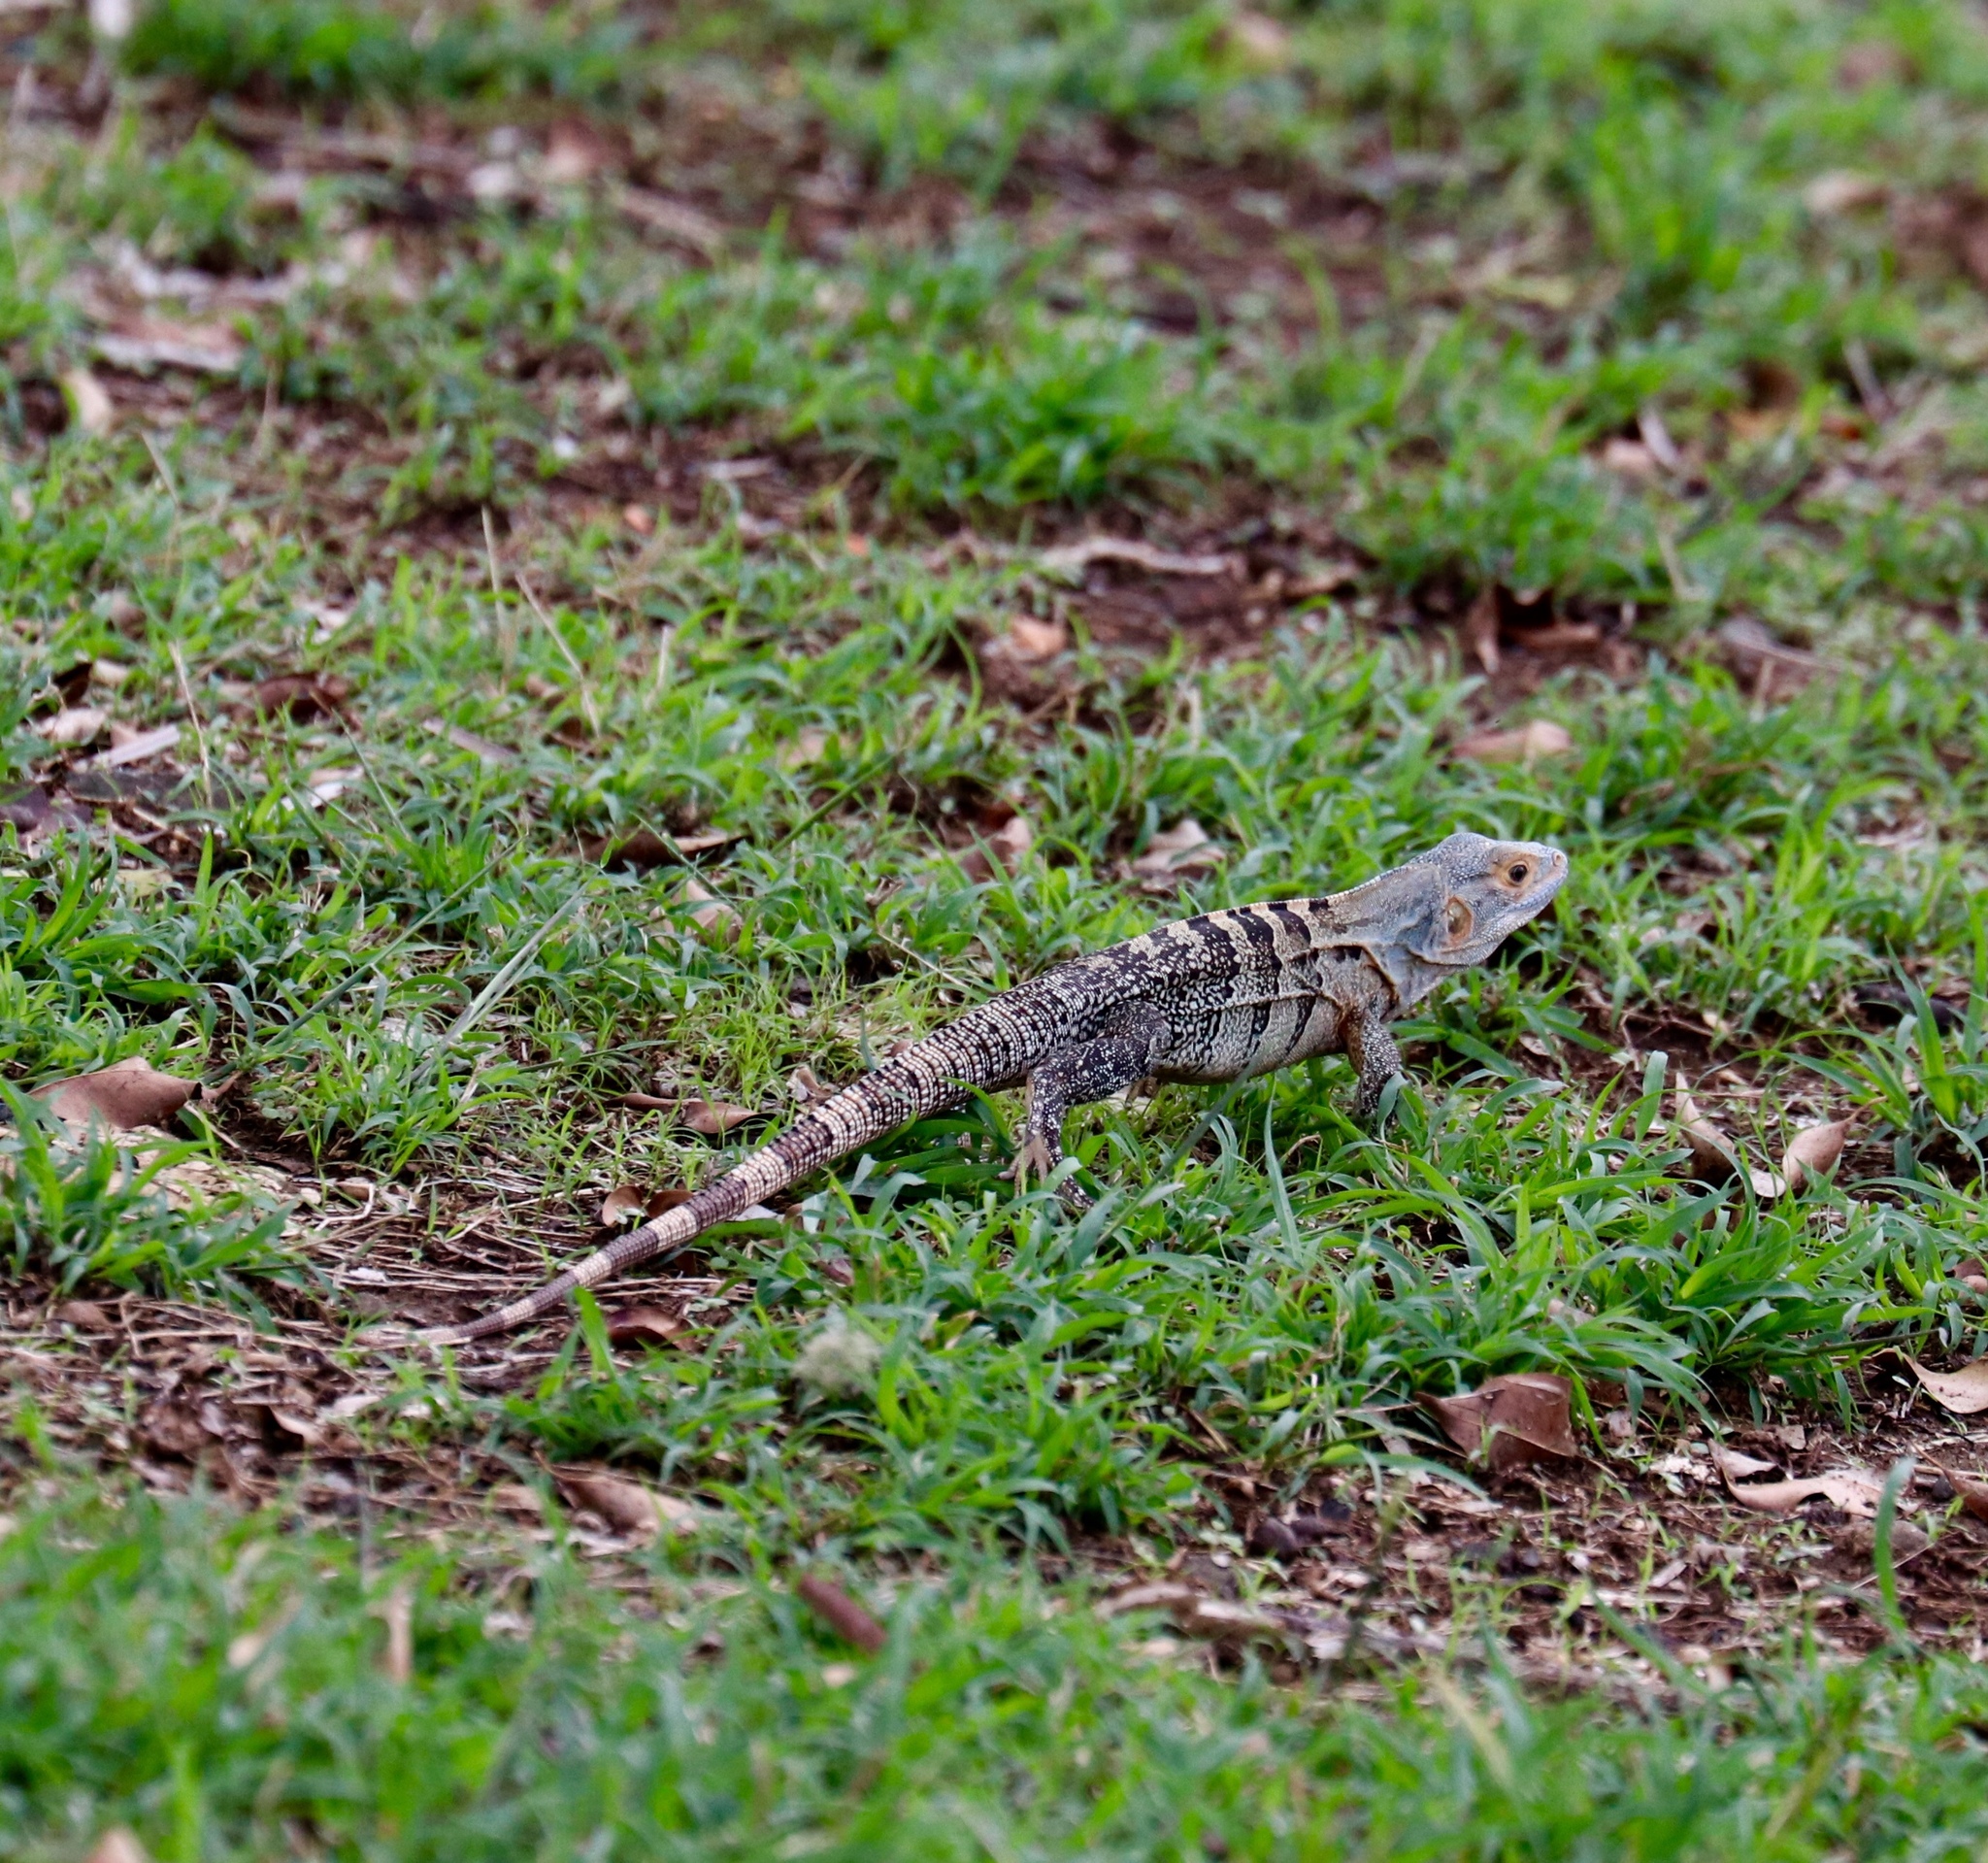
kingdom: Animalia
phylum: Chordata
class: Squamata
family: Iguanidae
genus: Ctenosaura
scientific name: Ctenosaura similis
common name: Black spiny-tailed iguana
